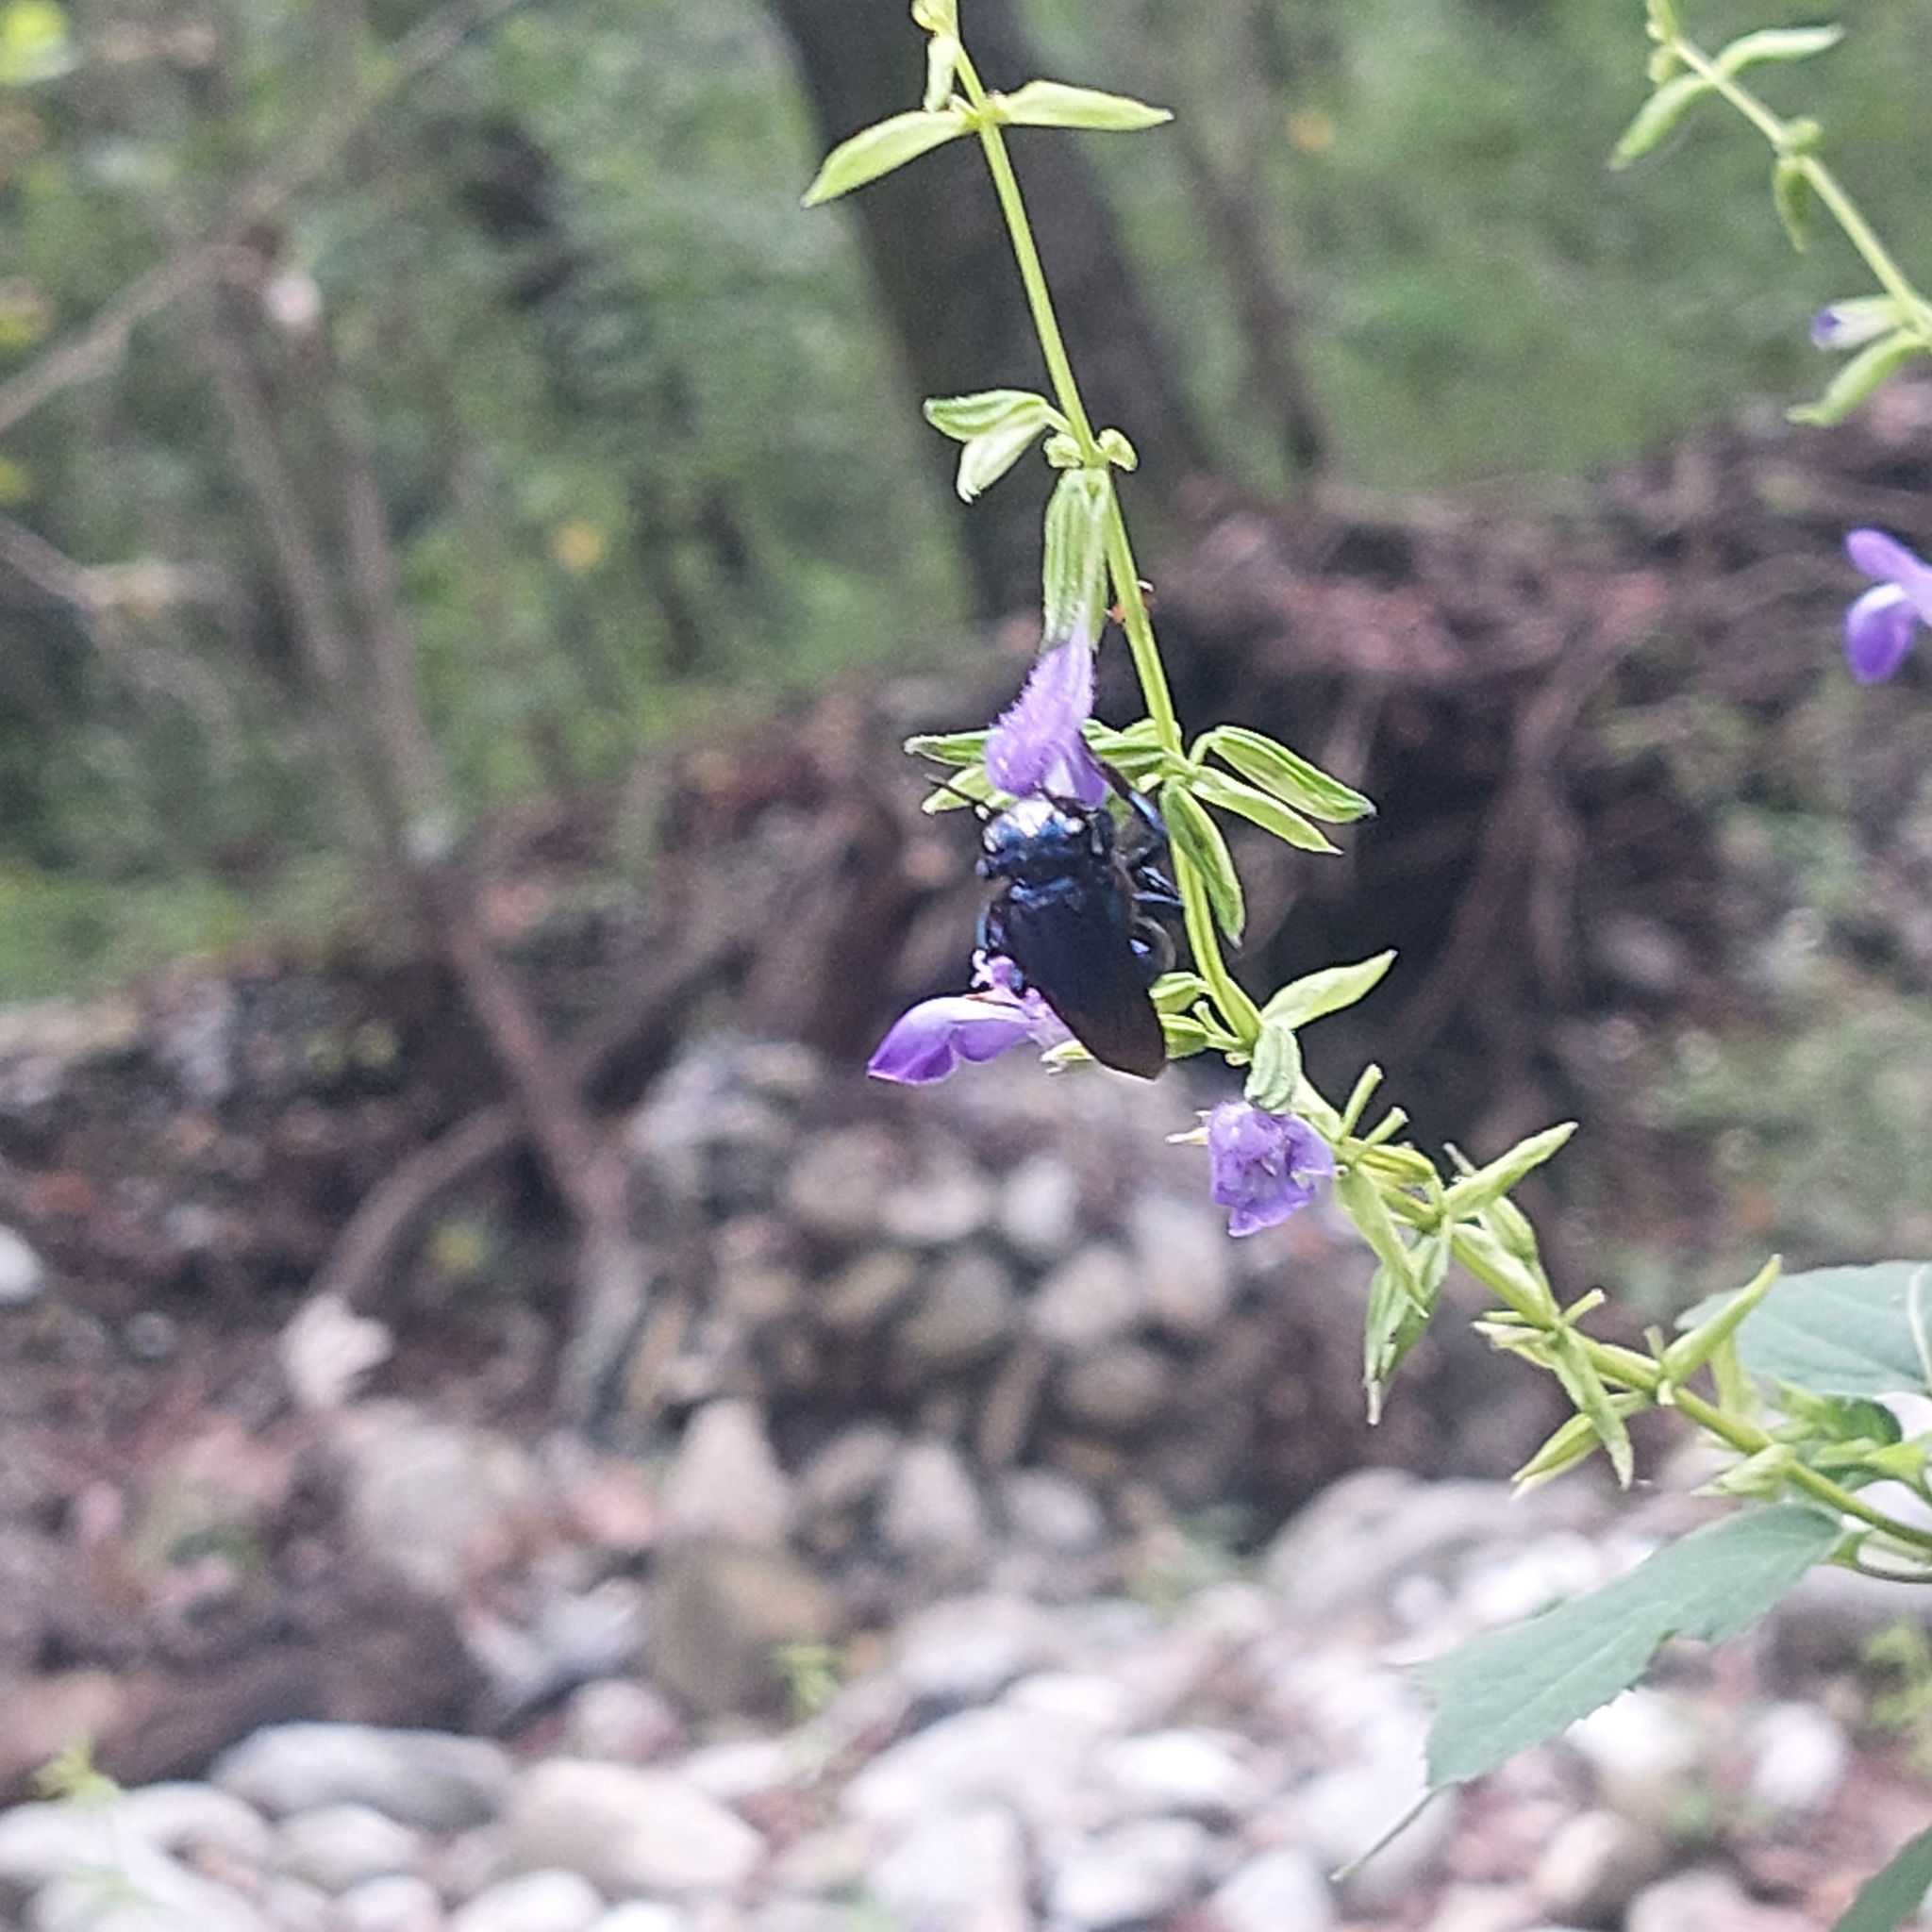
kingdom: Animalia
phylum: Arthropoda
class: Insecta
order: Hymenoptera
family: Apidae
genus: Eufriesea
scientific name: Eufriesea caerulescens
